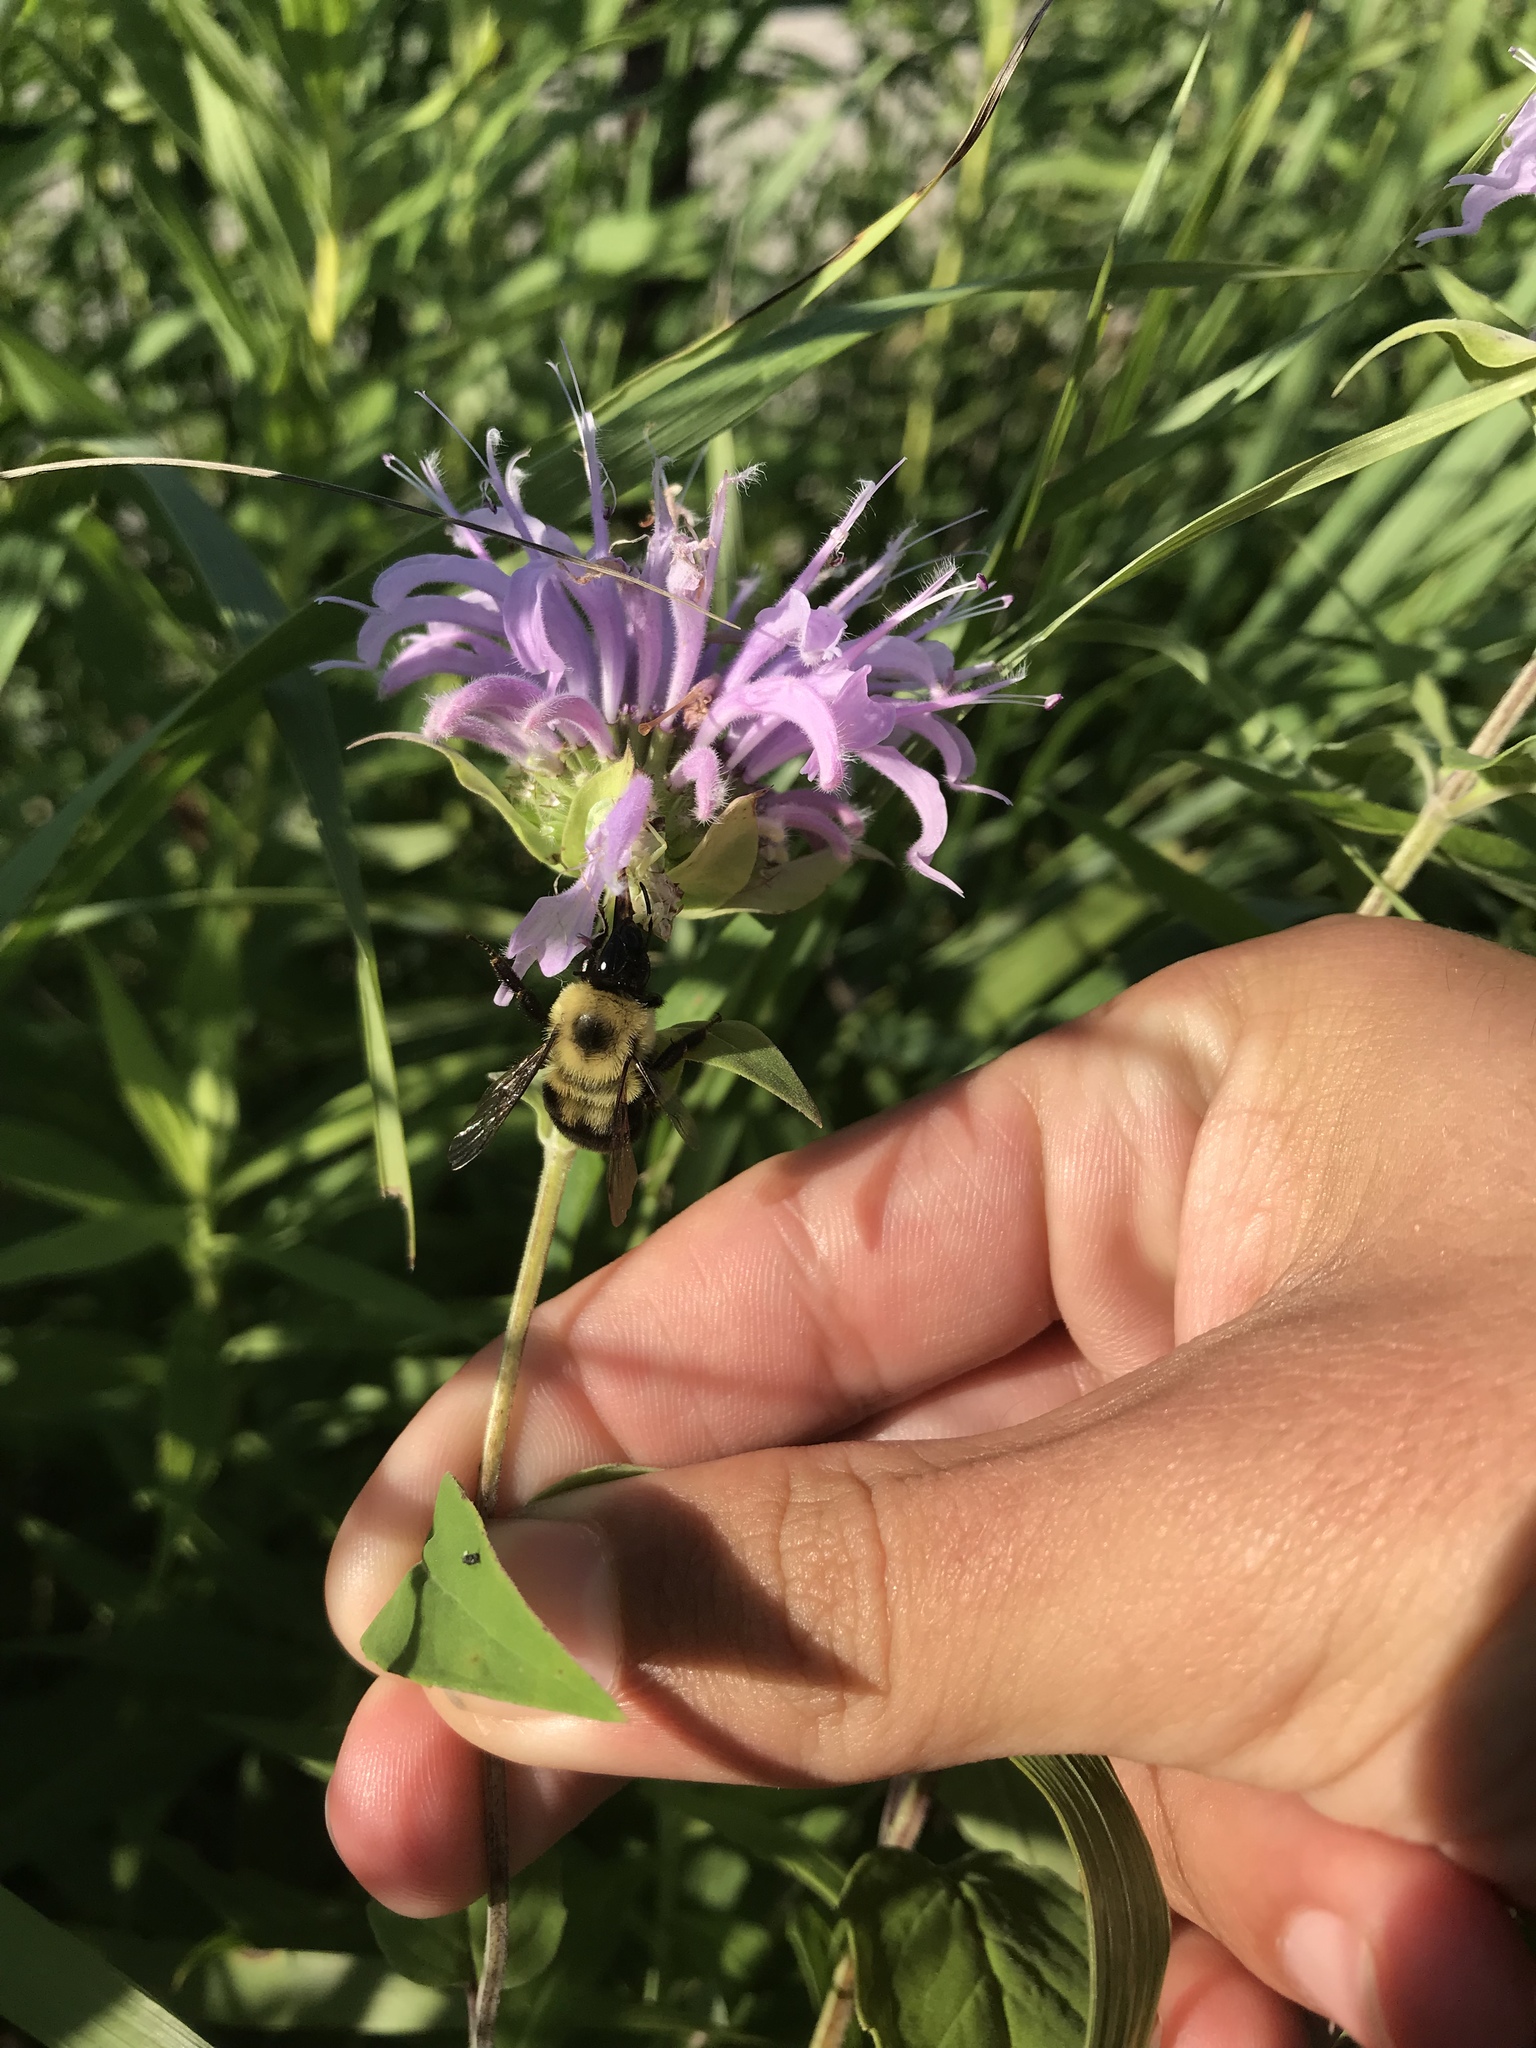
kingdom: Plantae
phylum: Tracheophyta
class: Magnoliopsida
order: Lamiales
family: Lamiaceae
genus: Monarda
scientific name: Monarda fistulosa
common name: Purple beebalm
